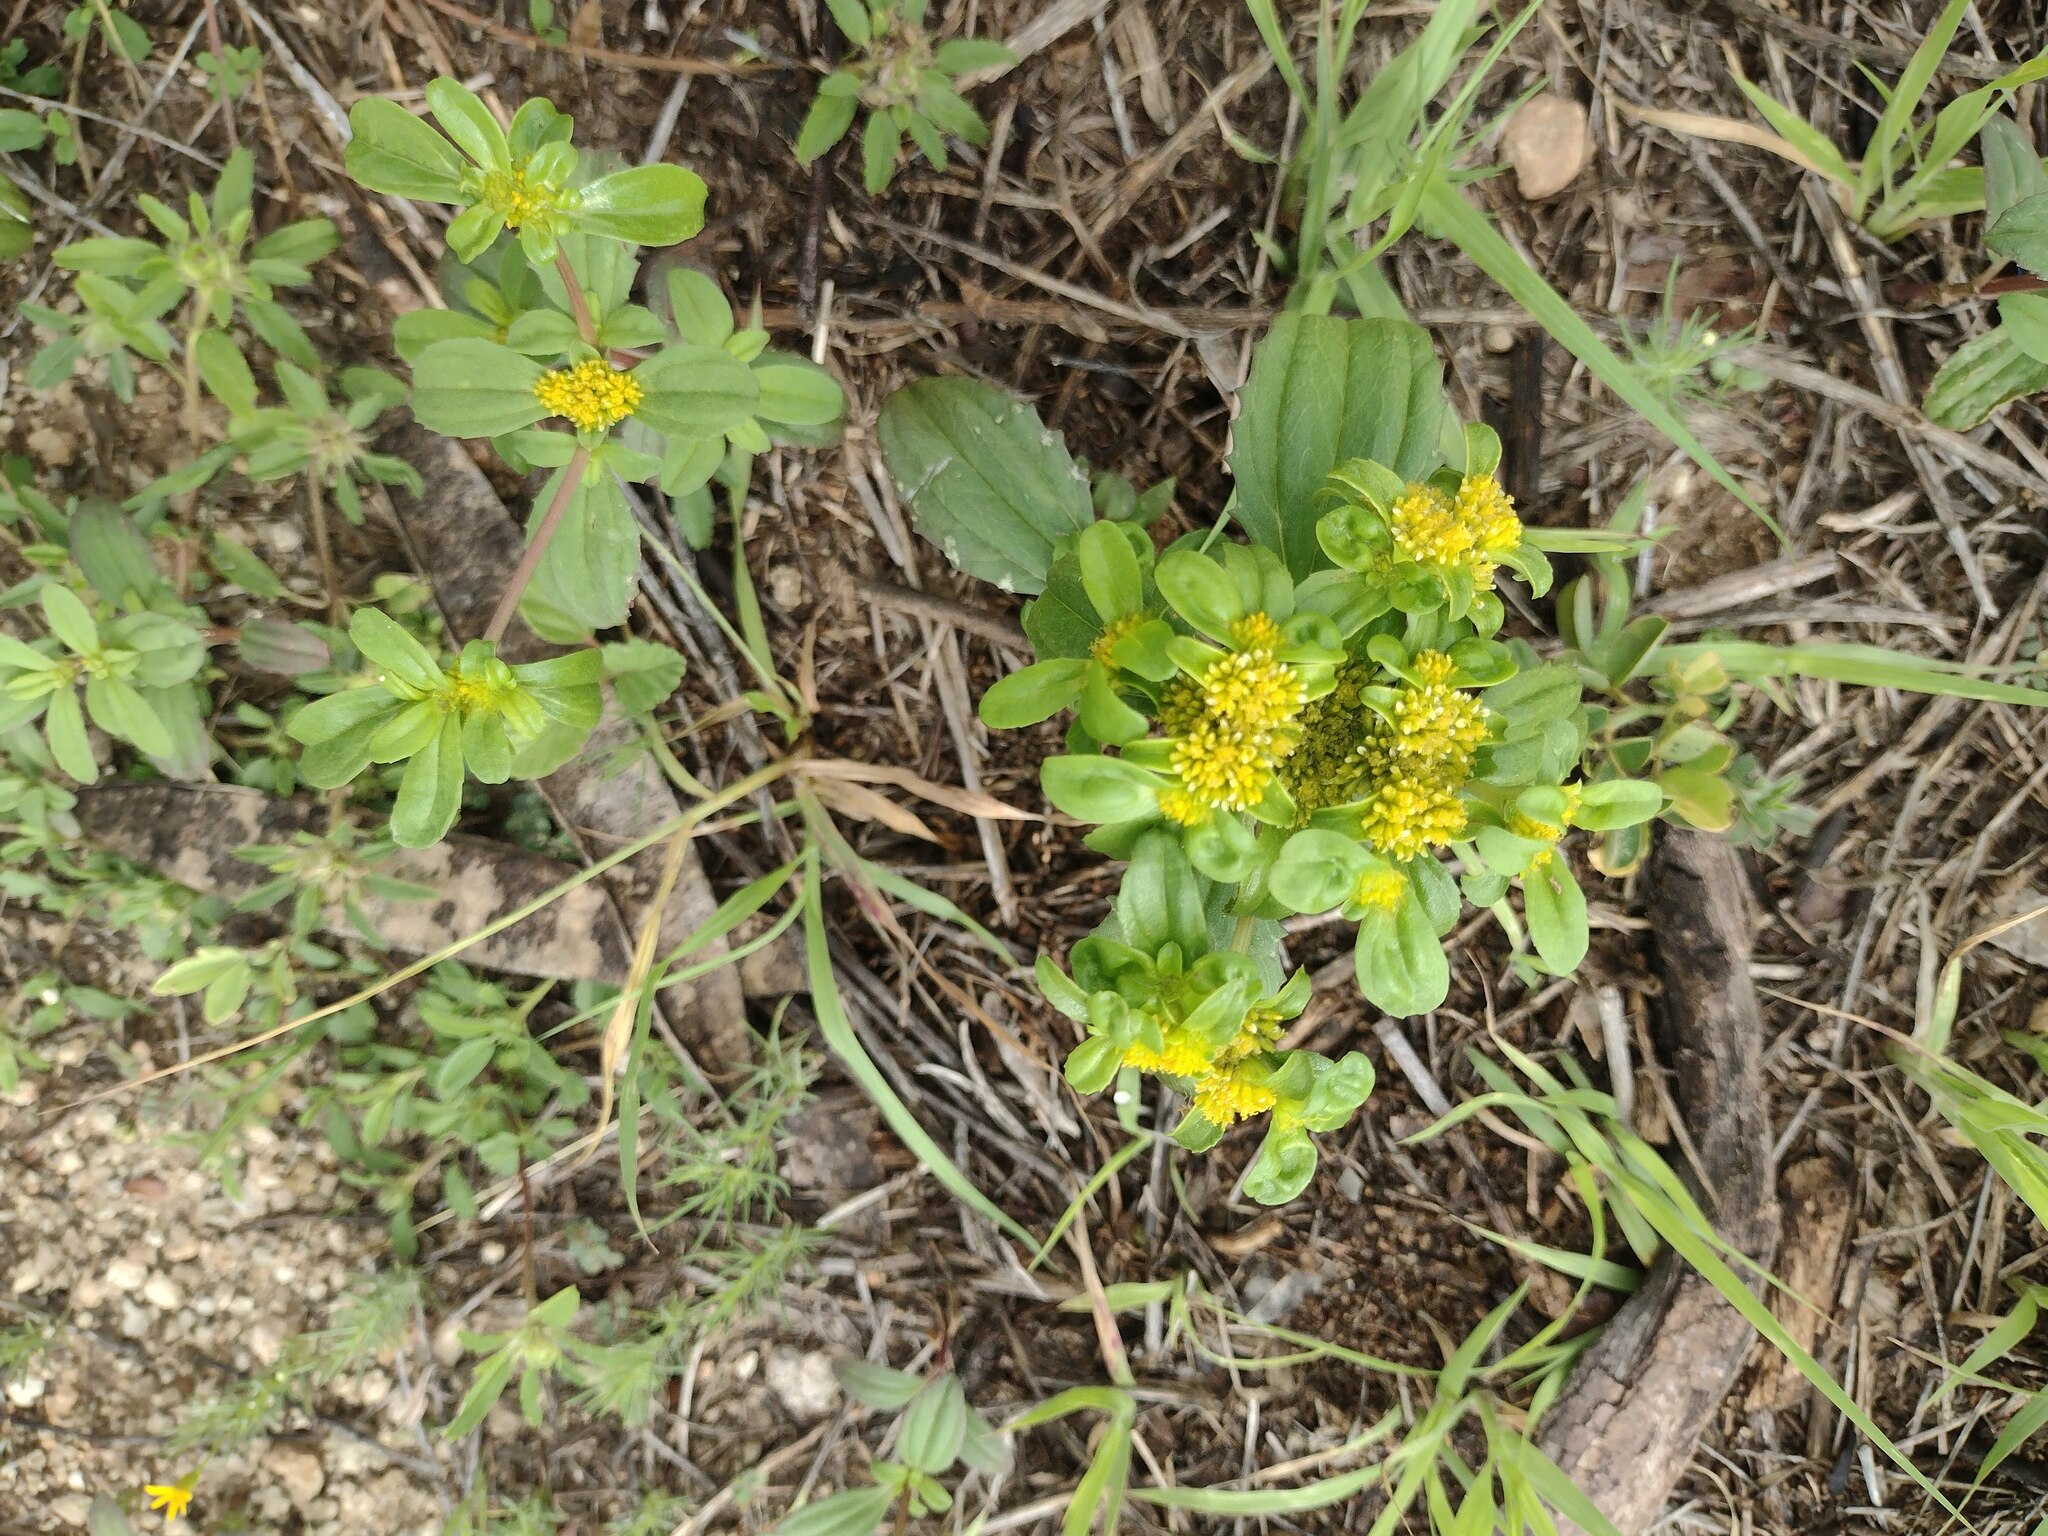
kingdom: Plantae
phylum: Tracheophyta
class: Magnoliopsida
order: Asterales
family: Asteraceae
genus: Flaveria
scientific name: Flaveria trinervia
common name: Clustered yellowtops
